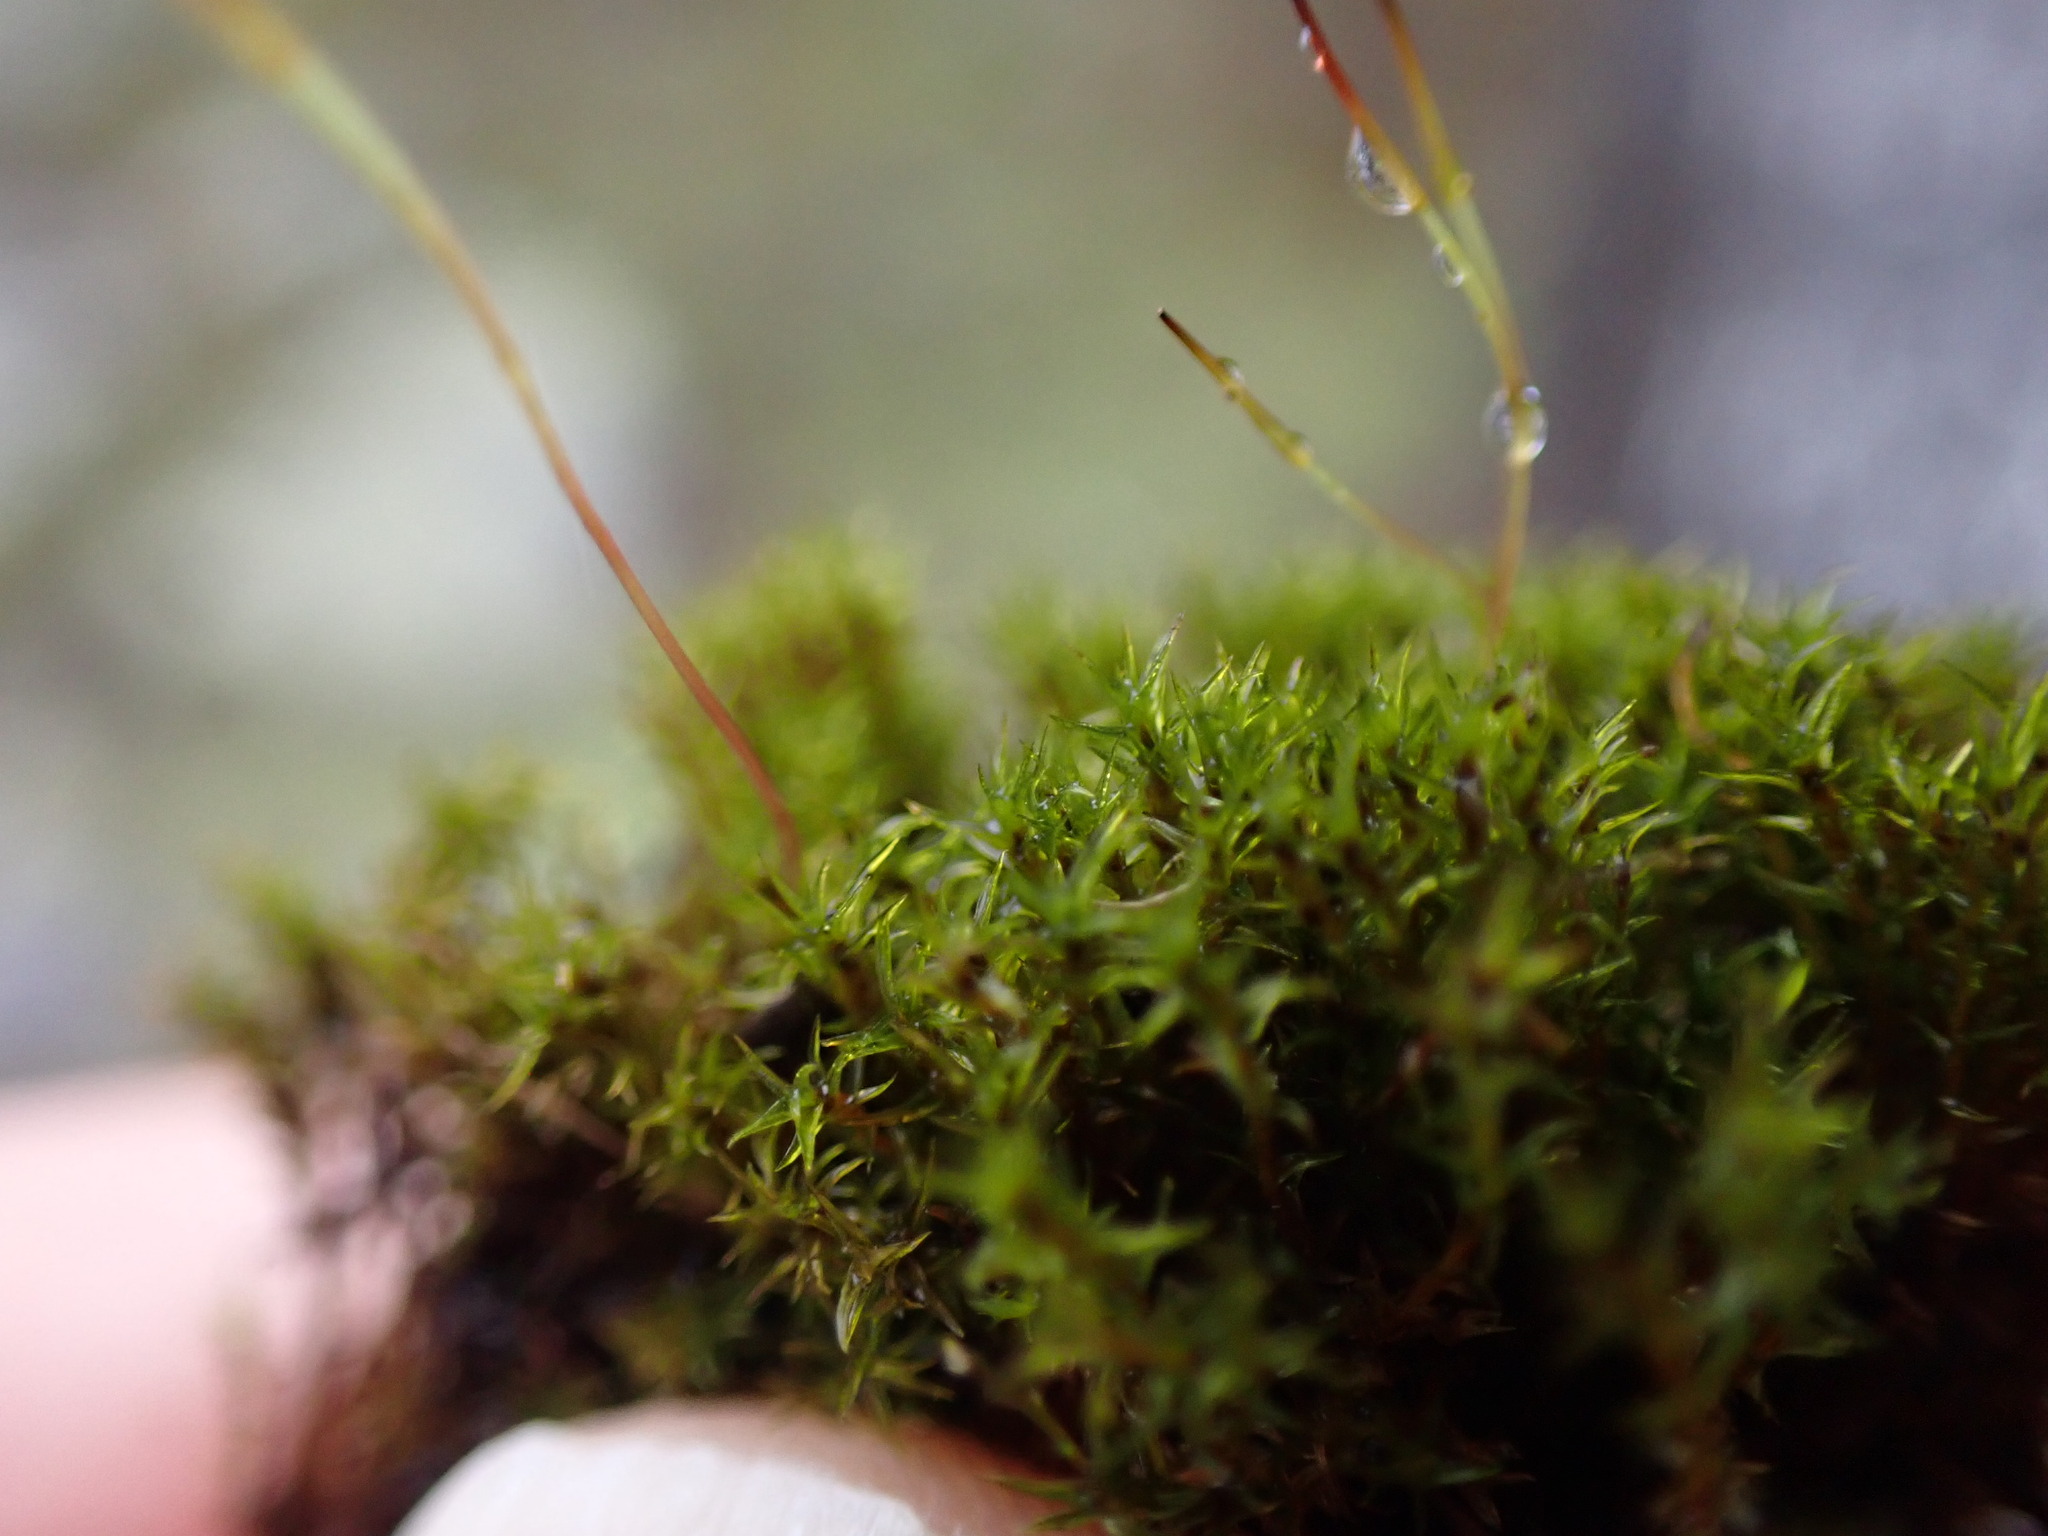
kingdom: Plantae
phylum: Bryophyta
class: Bryopsida
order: Dicranales
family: Ditrichaceae
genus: Ceratodon
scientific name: Ceratodon purpureus
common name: Redshank
